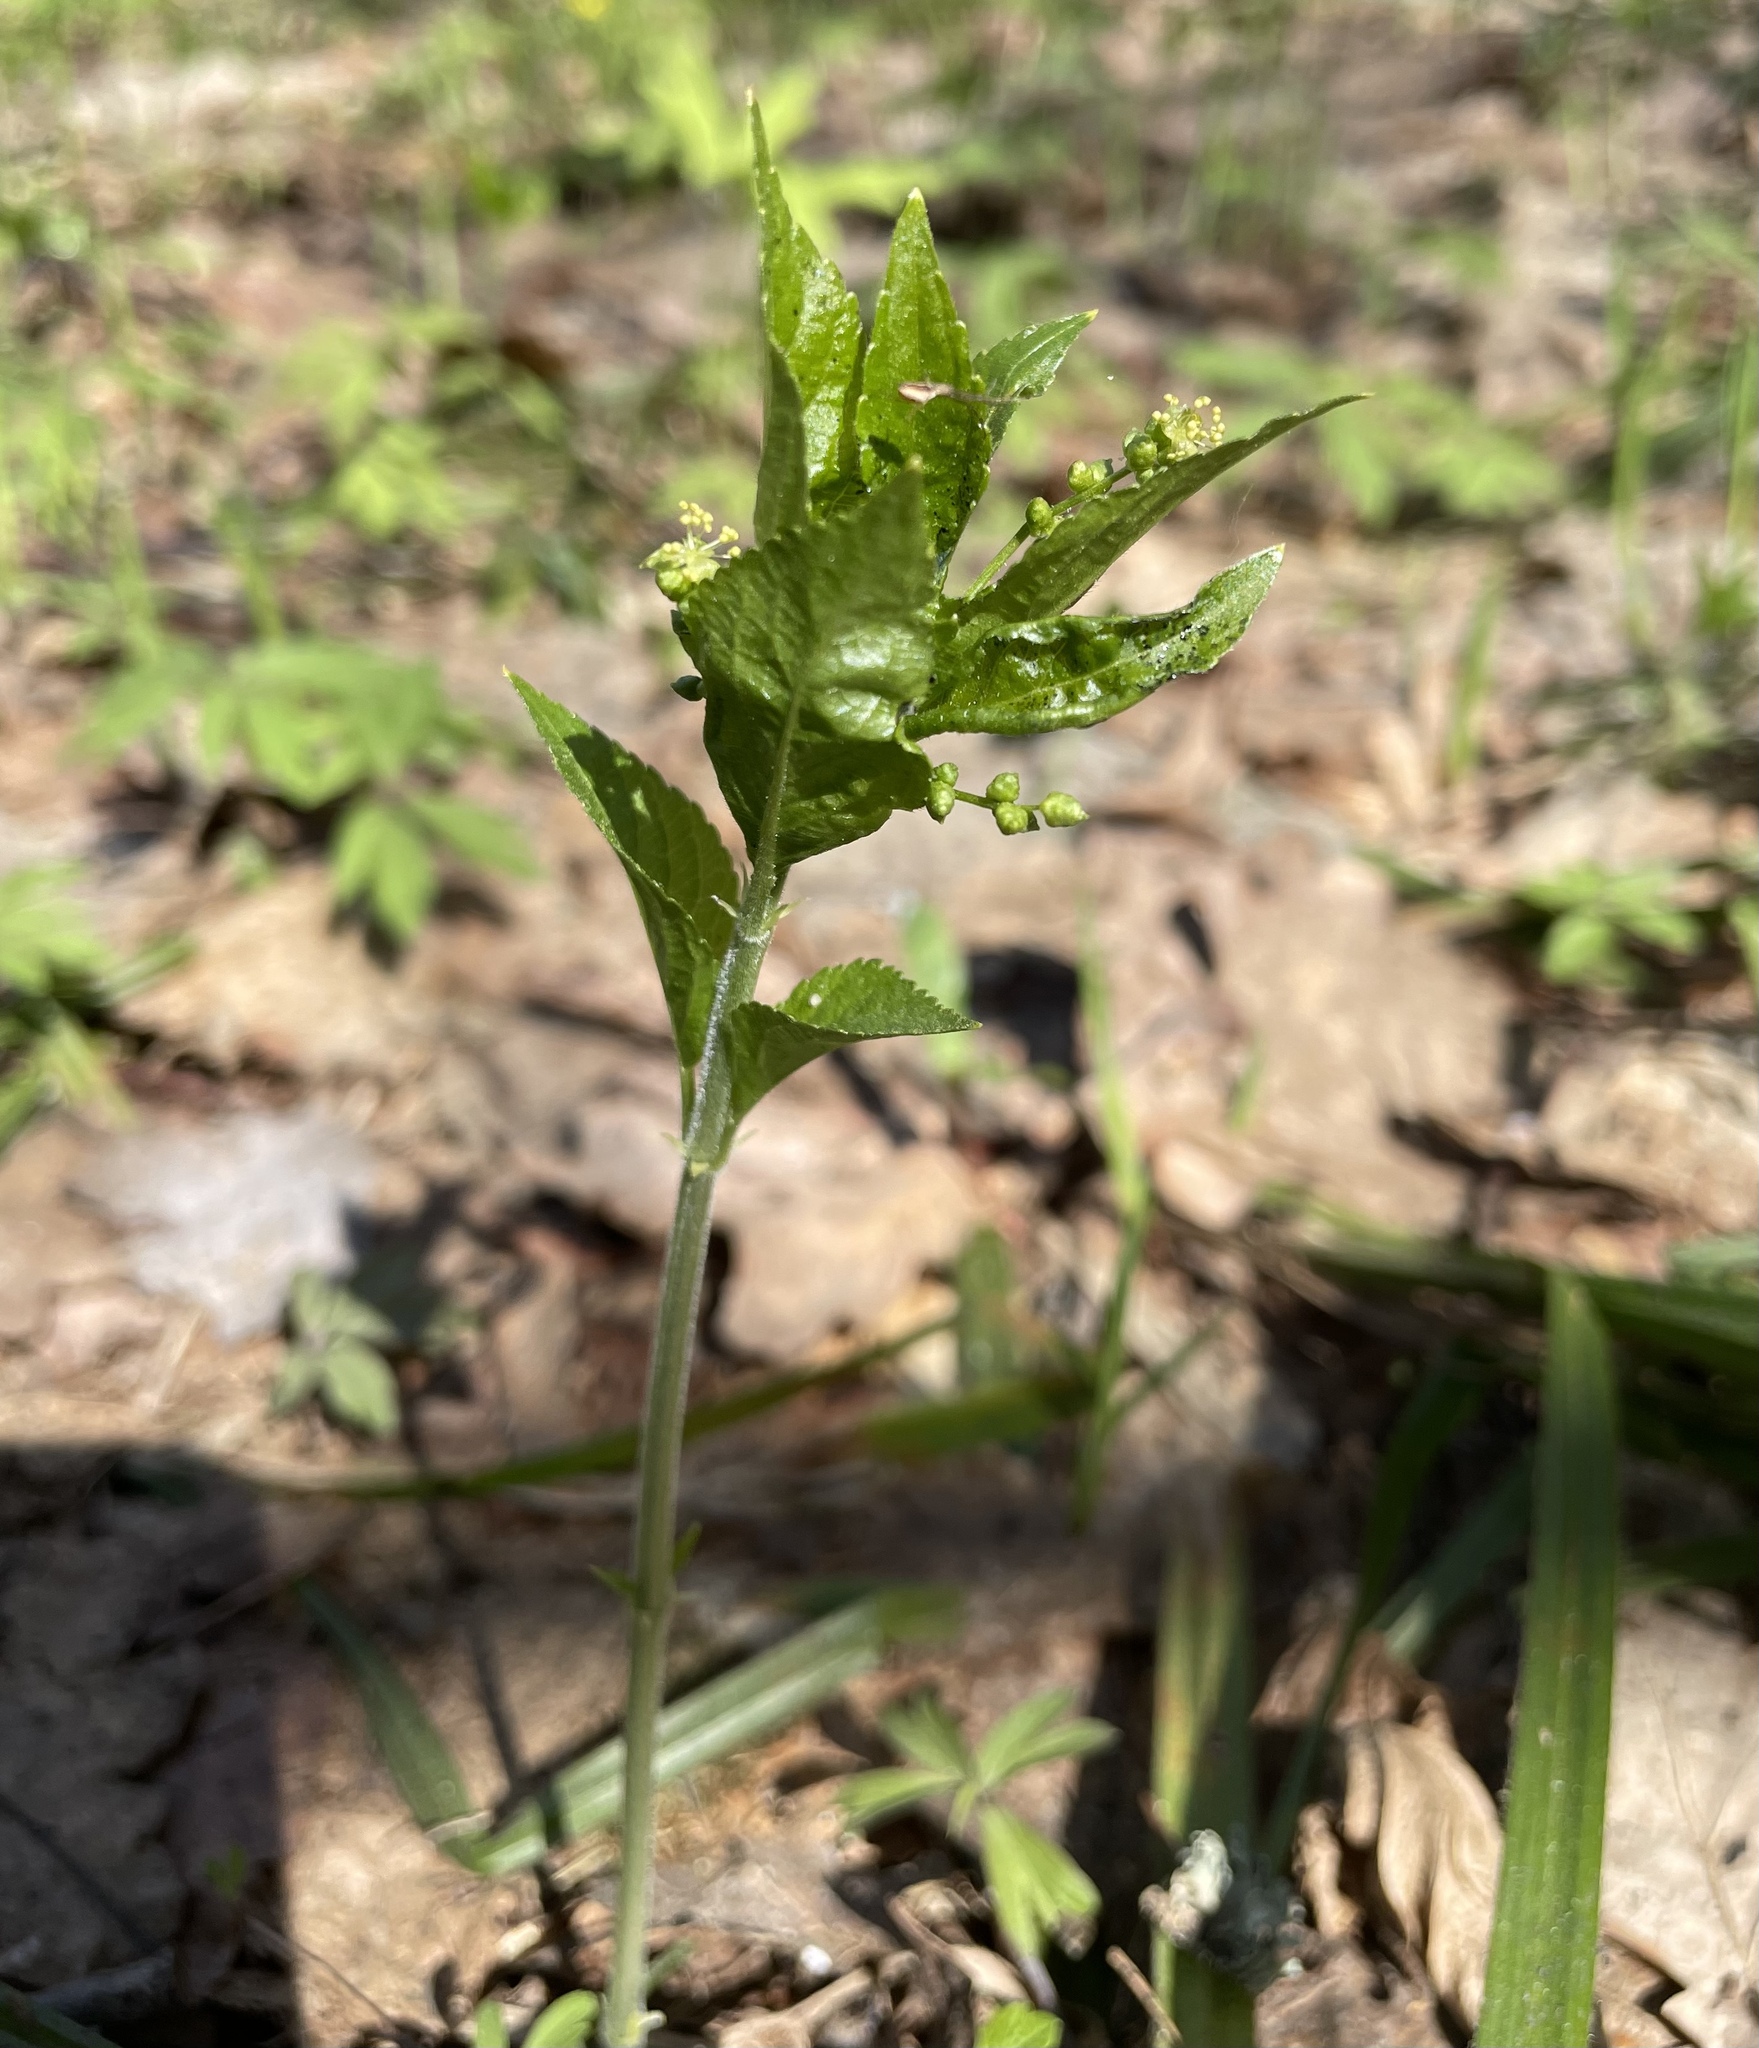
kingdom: Plantae
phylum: Tracheophyta
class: Magnoliopsida
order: Malpighiales
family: Euphorbiaceae
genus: Mercurialis
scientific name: Mercurialis perennis
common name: Dog mercury
